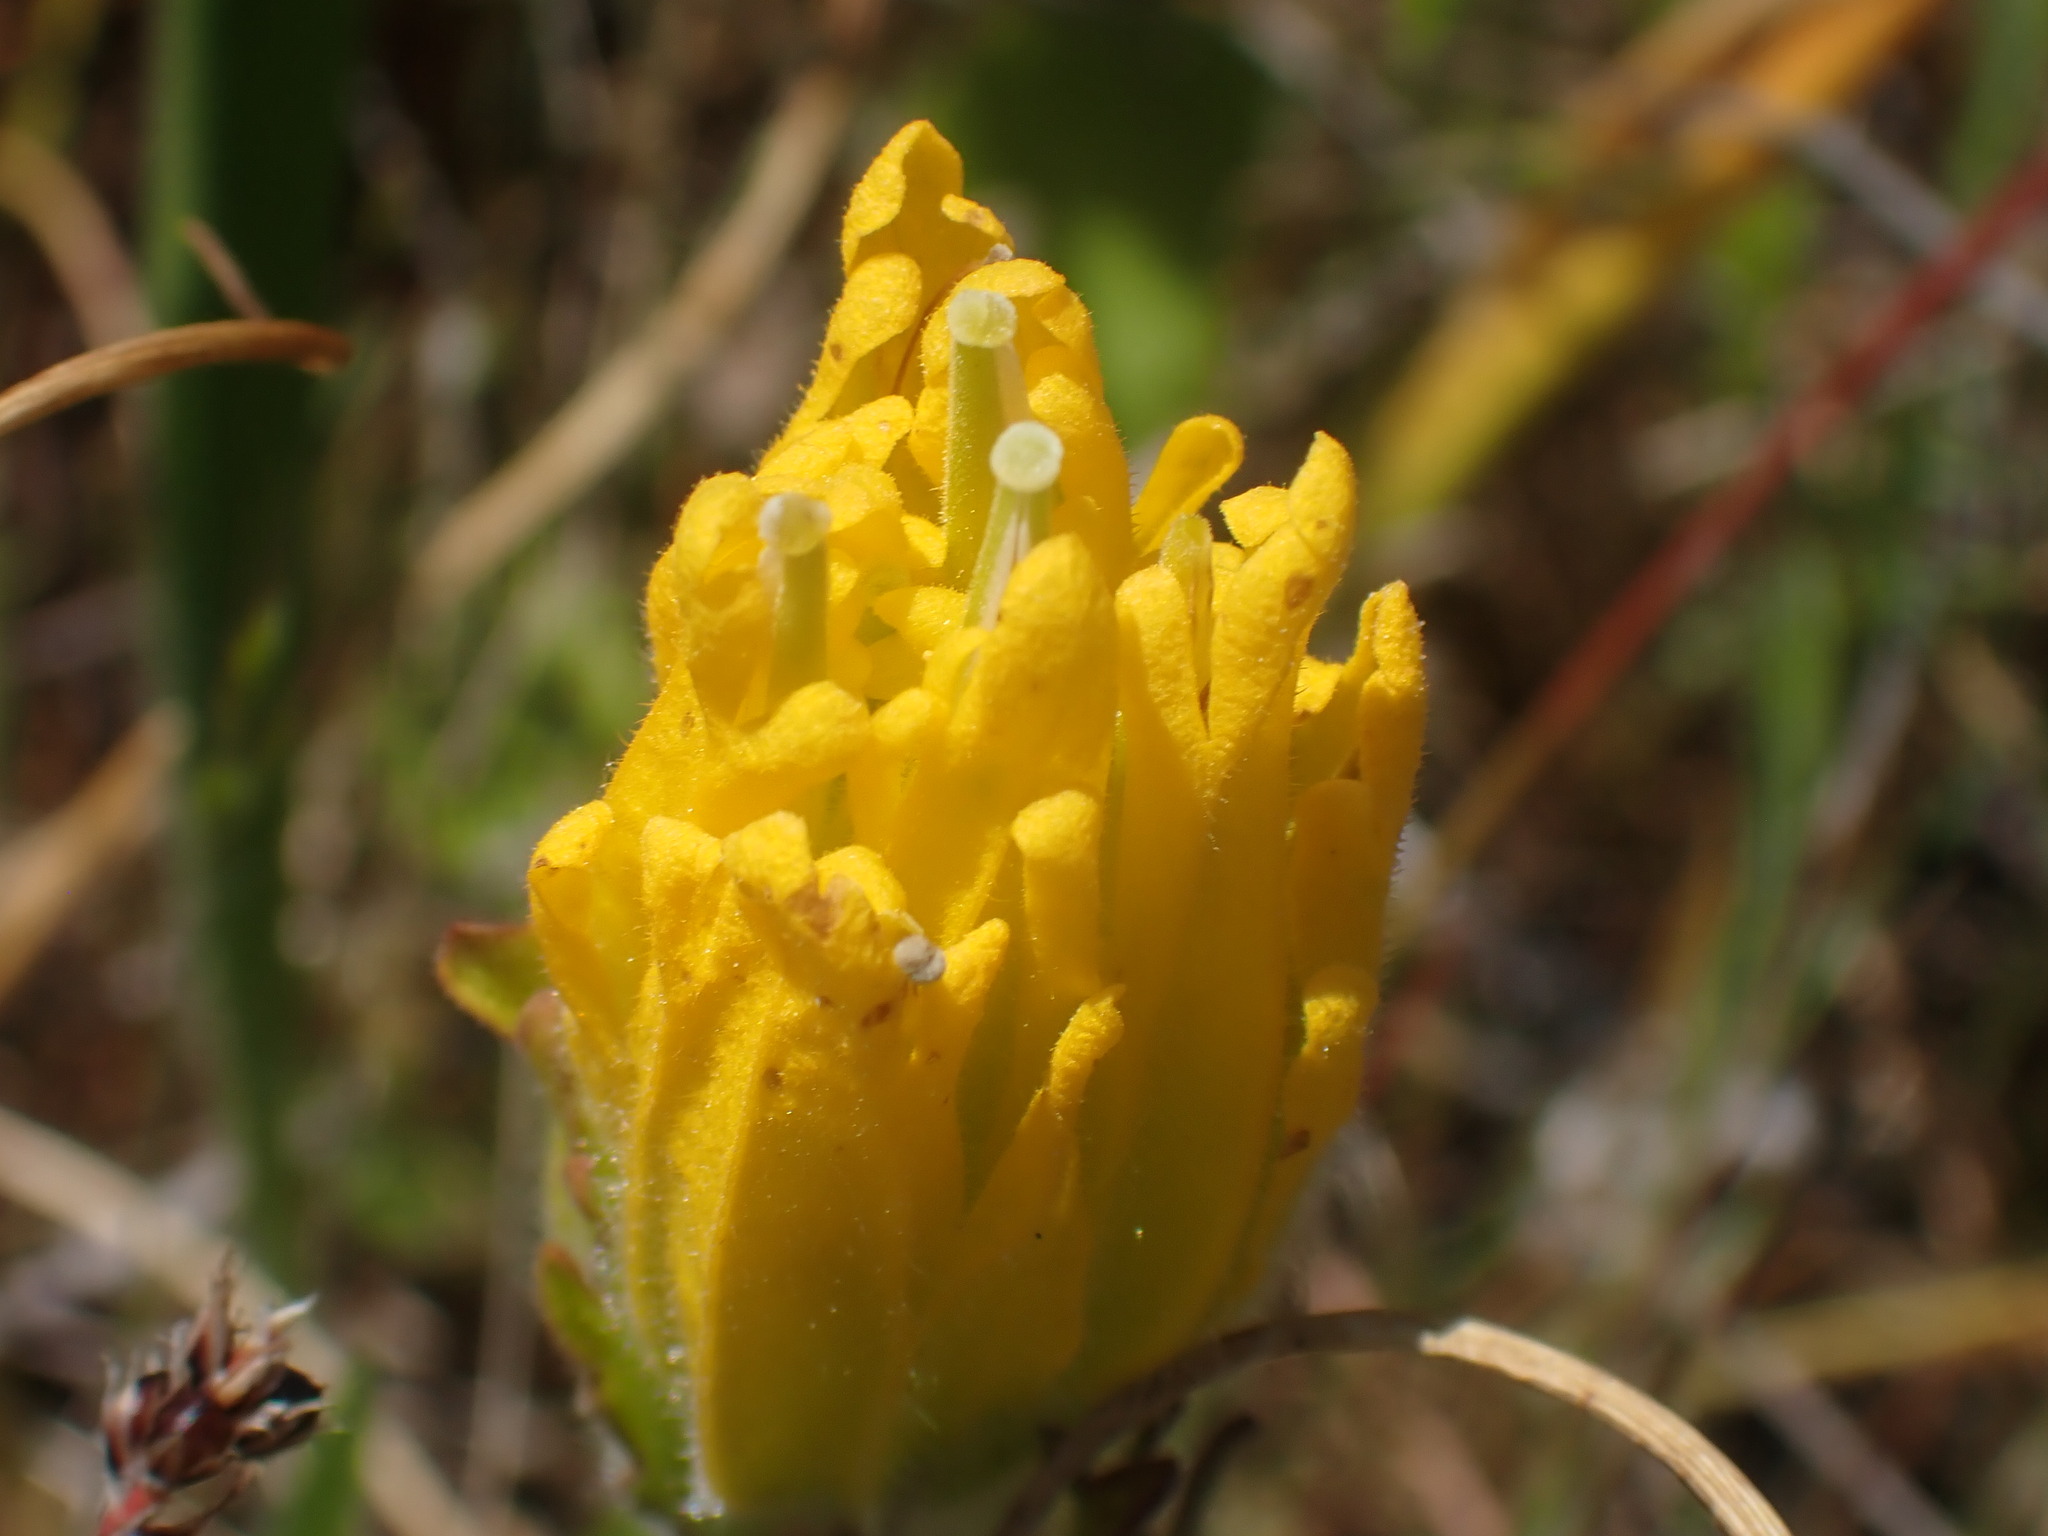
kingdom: Plantae
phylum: Tracheophyta
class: Magnoliopsida
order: Lamiales
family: Orobanchaceae
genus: Castilleja
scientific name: Castilleja levisecta
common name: Golden paintbrush
